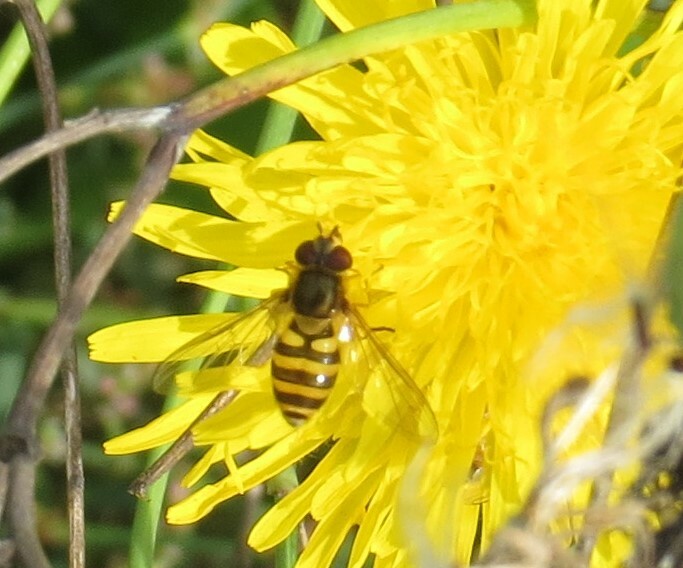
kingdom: Animalia
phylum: Arthropoda
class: Insecta
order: Diptera
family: Syrphidae
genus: Syrphus
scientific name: Syrphus
